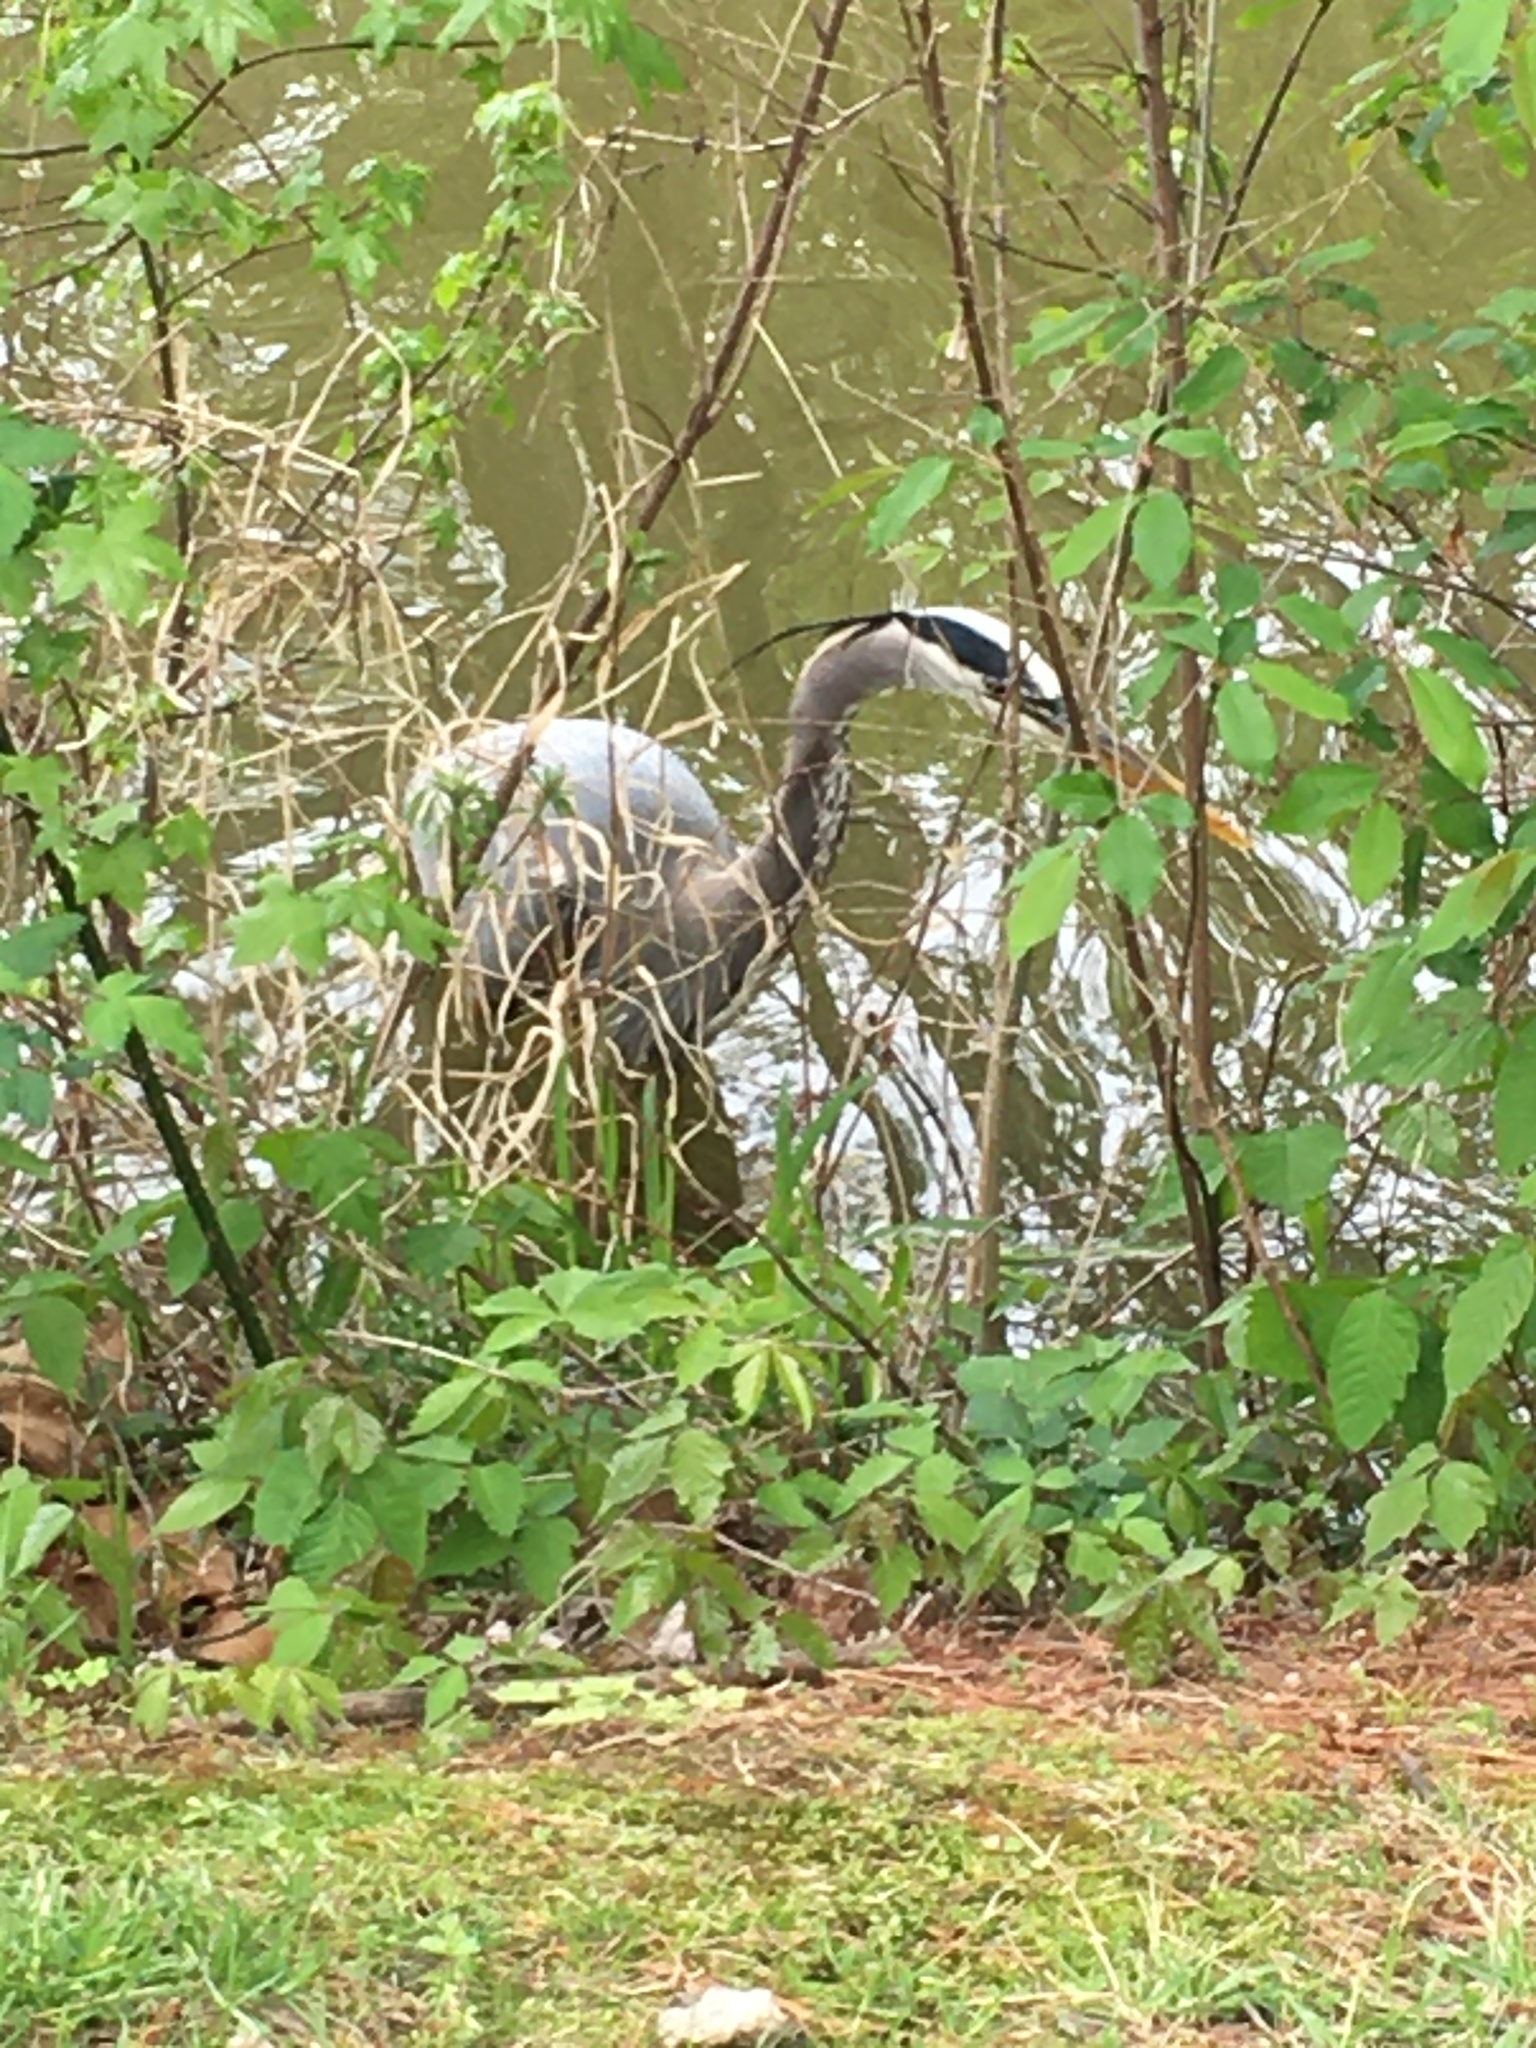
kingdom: Animalia
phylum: Chordata
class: Aves
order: Pelecaniformes
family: Ardeidae
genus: Ardea
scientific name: Ardea herodias
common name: Great blue heron
